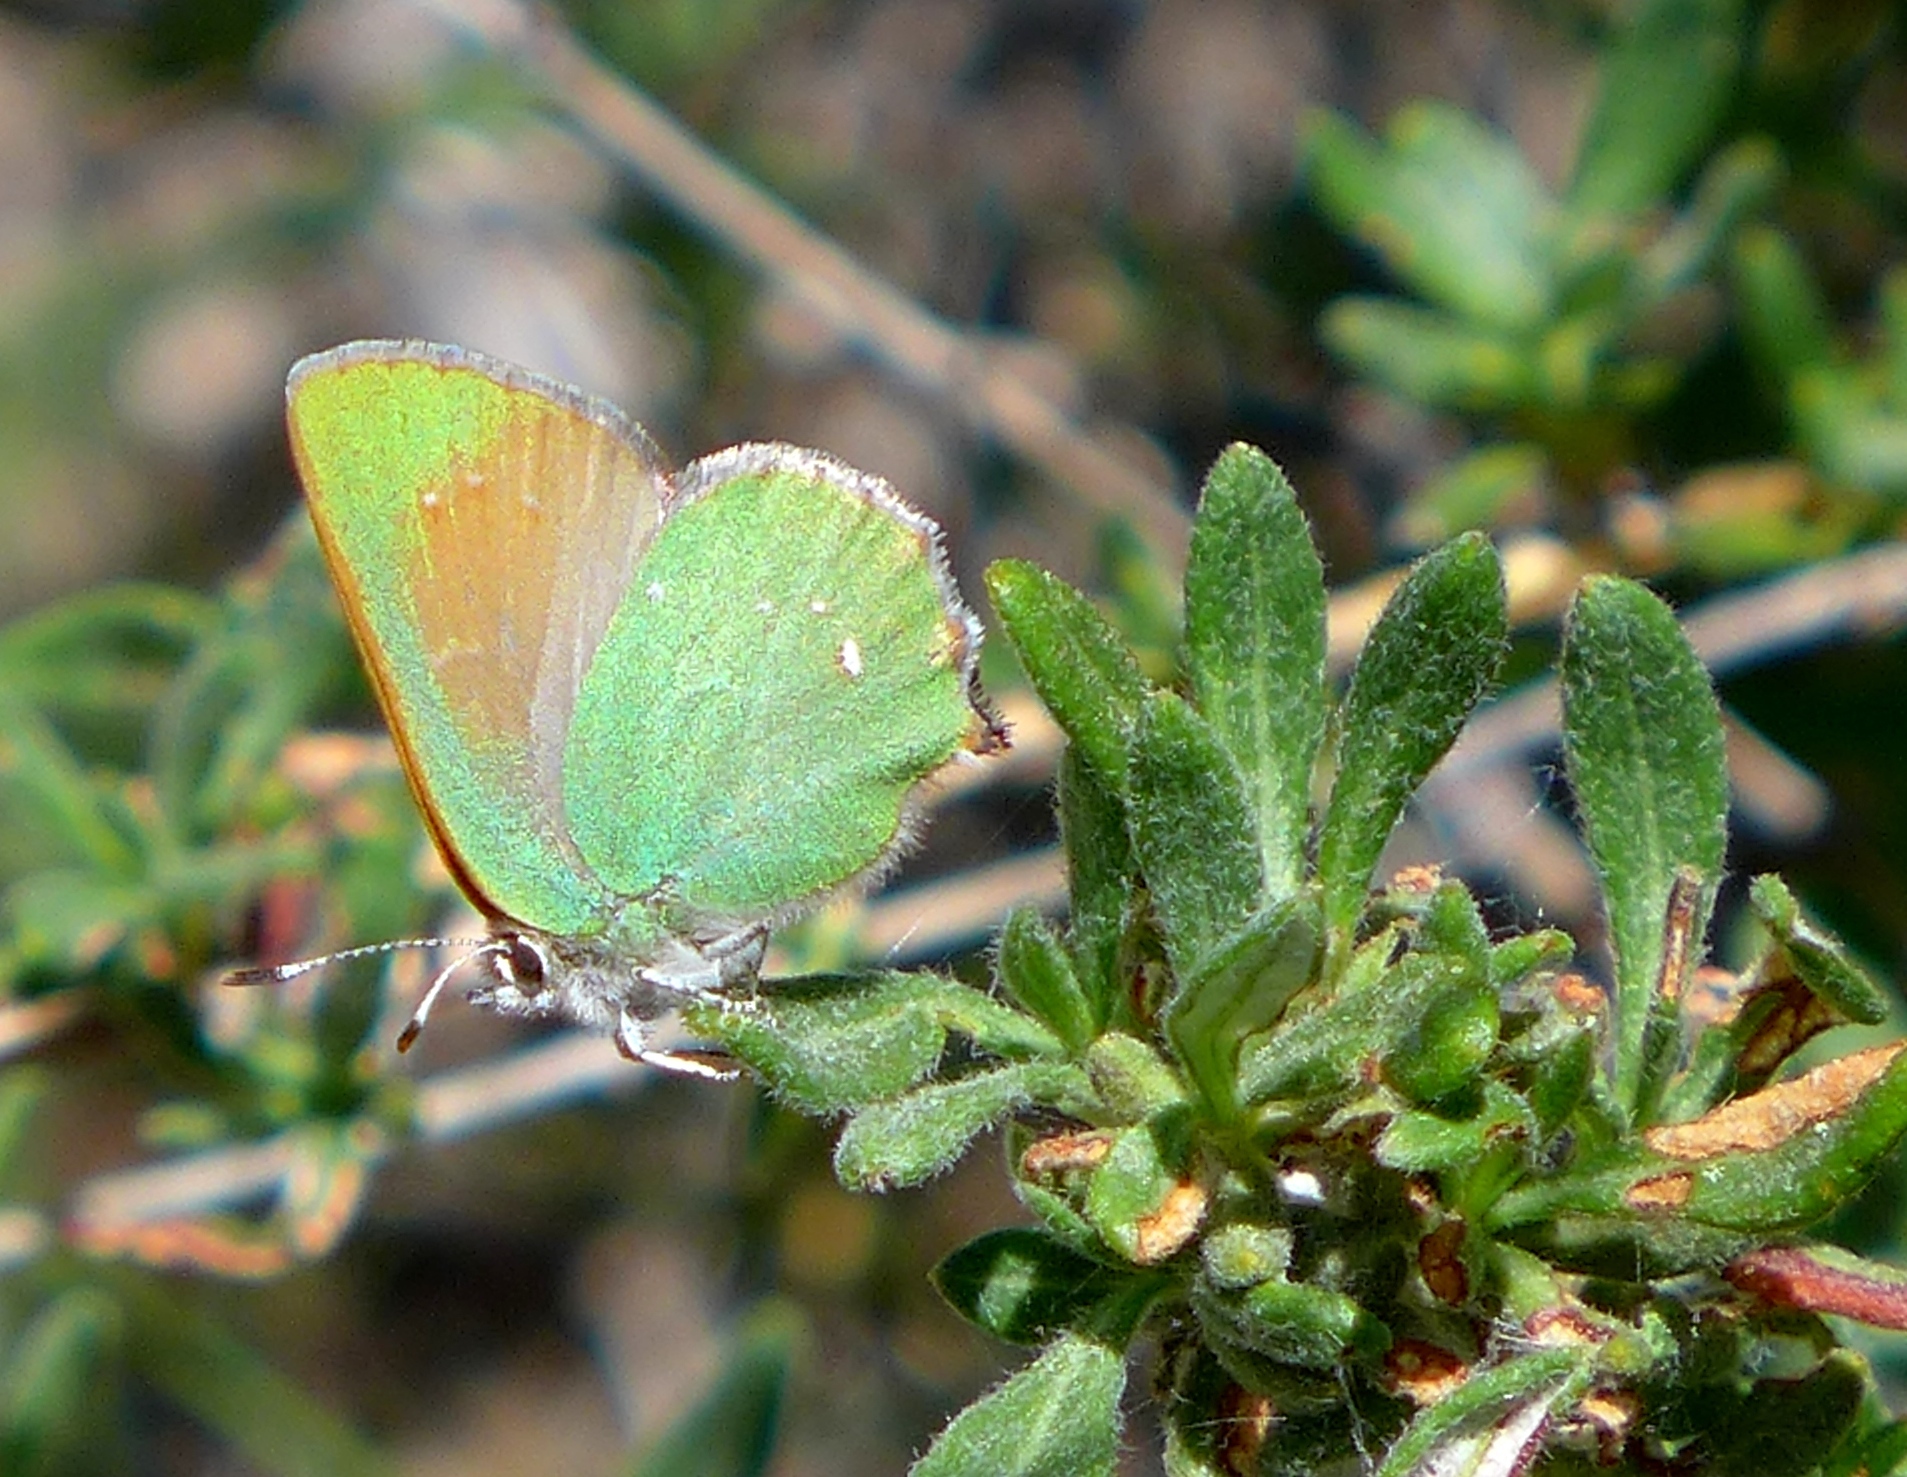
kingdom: Animalia
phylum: Arthropoda
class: Insecta
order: Lepidoptera
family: Lycaenidae
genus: Callophrys
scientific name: Callophrys dumetorum
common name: Bramble hairstreak
